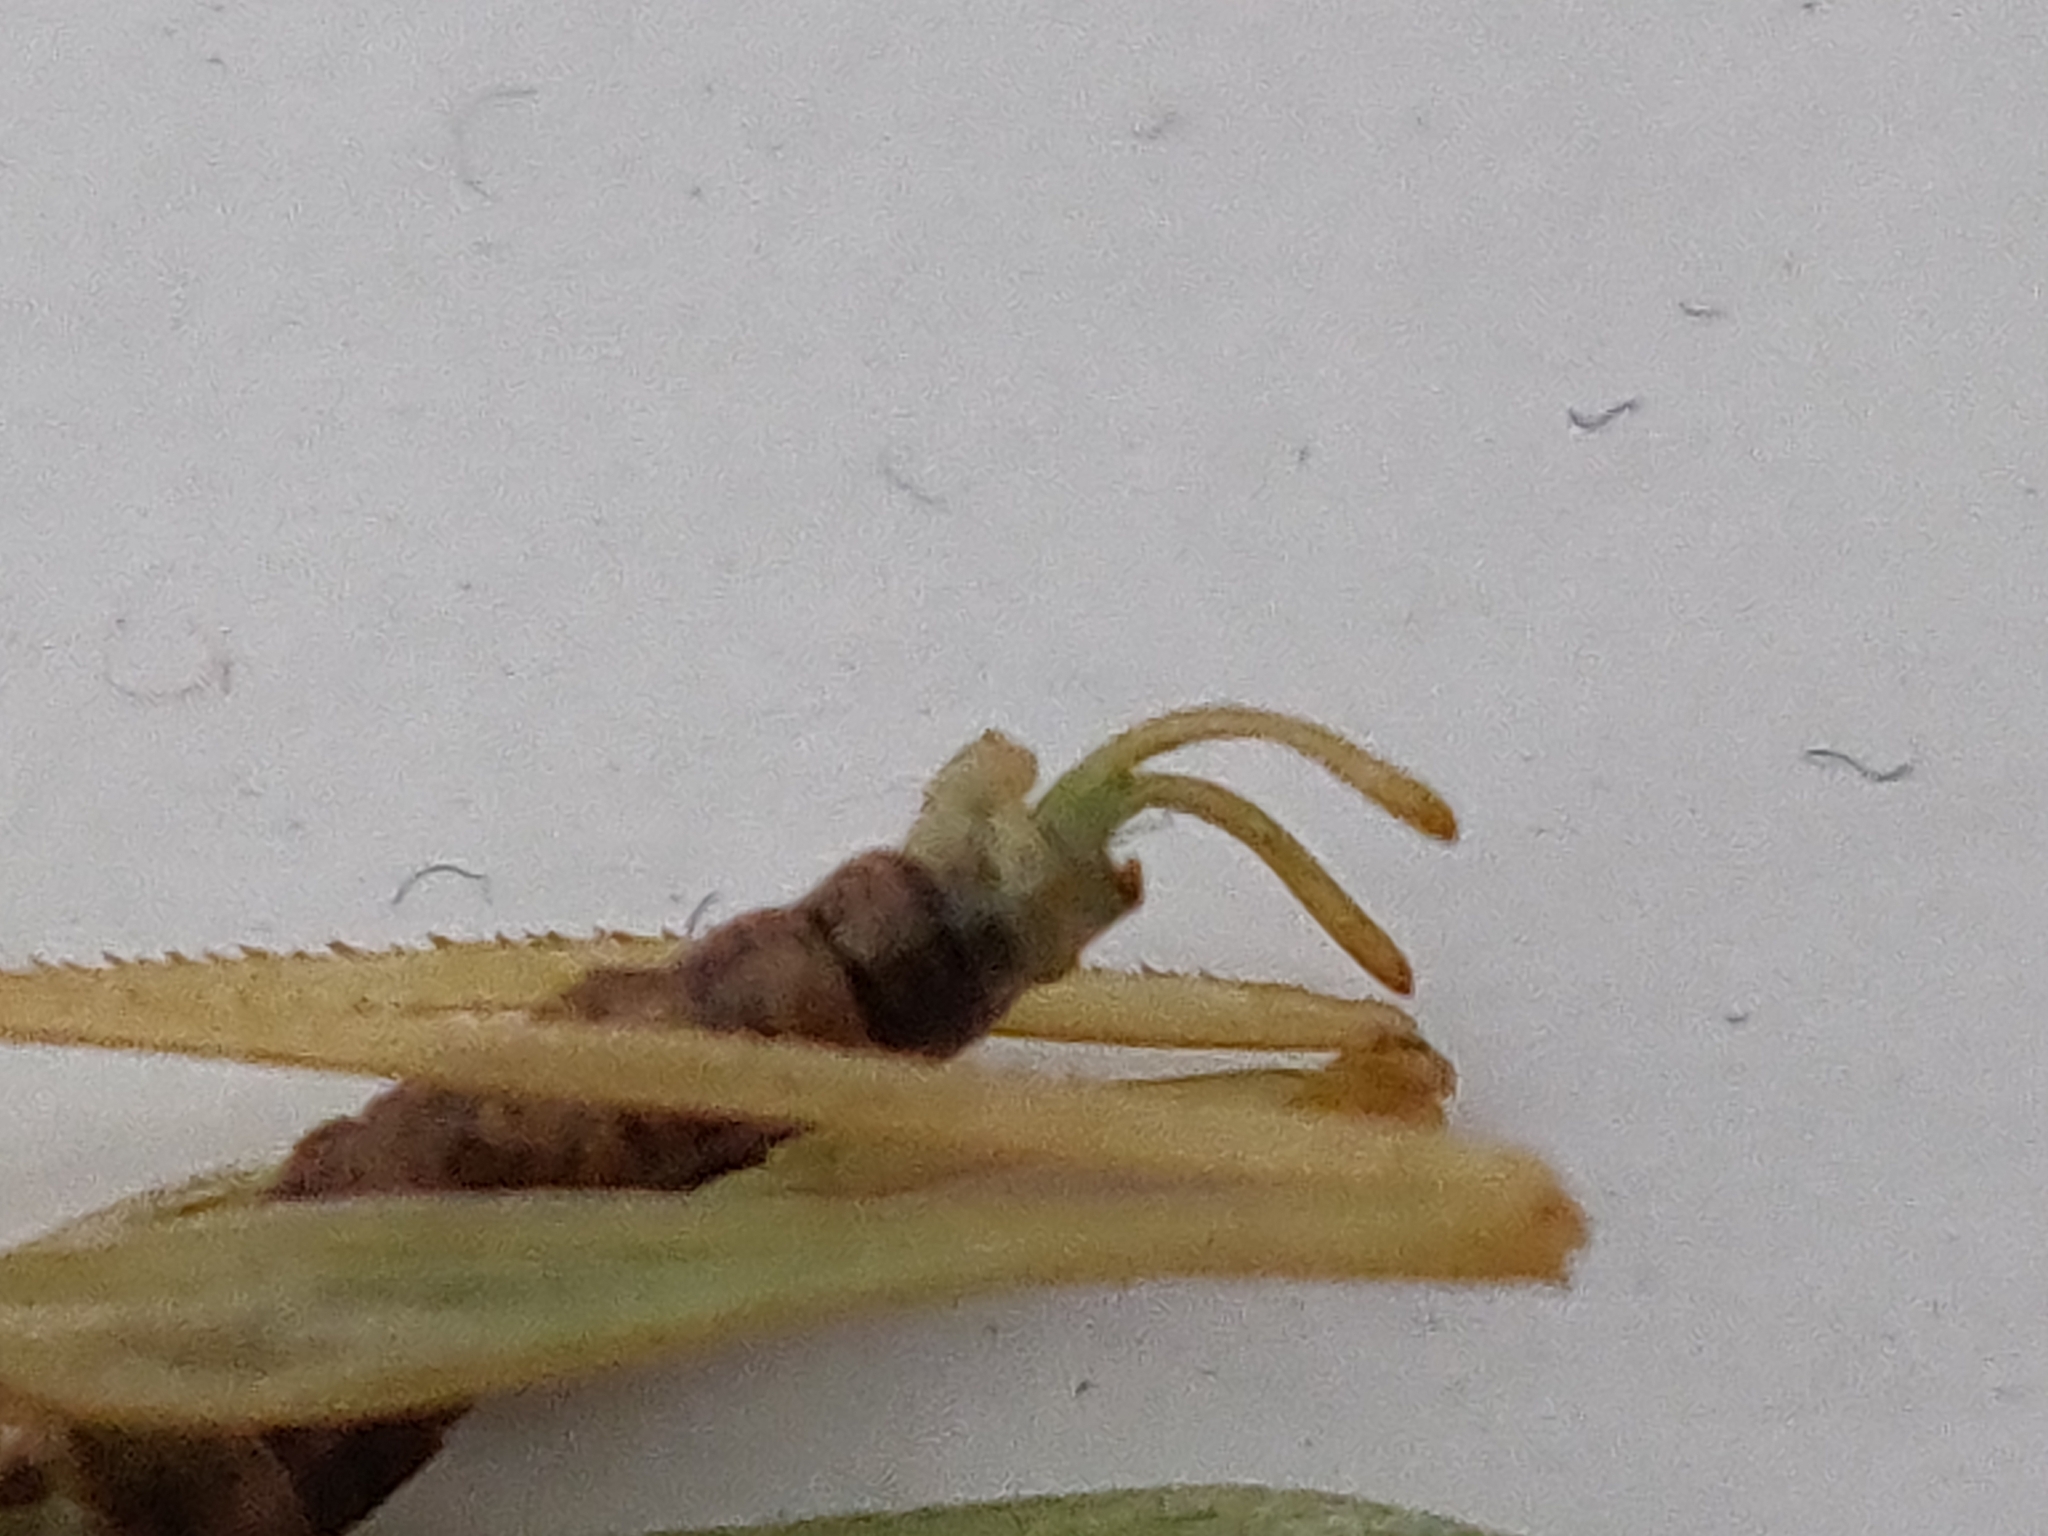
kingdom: Animalia
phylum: Arthropoda
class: Insecta
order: Orthoptera
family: Tettigoniidae
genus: Meconema
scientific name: Meconema thalassinum
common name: Oak bush-cricket
